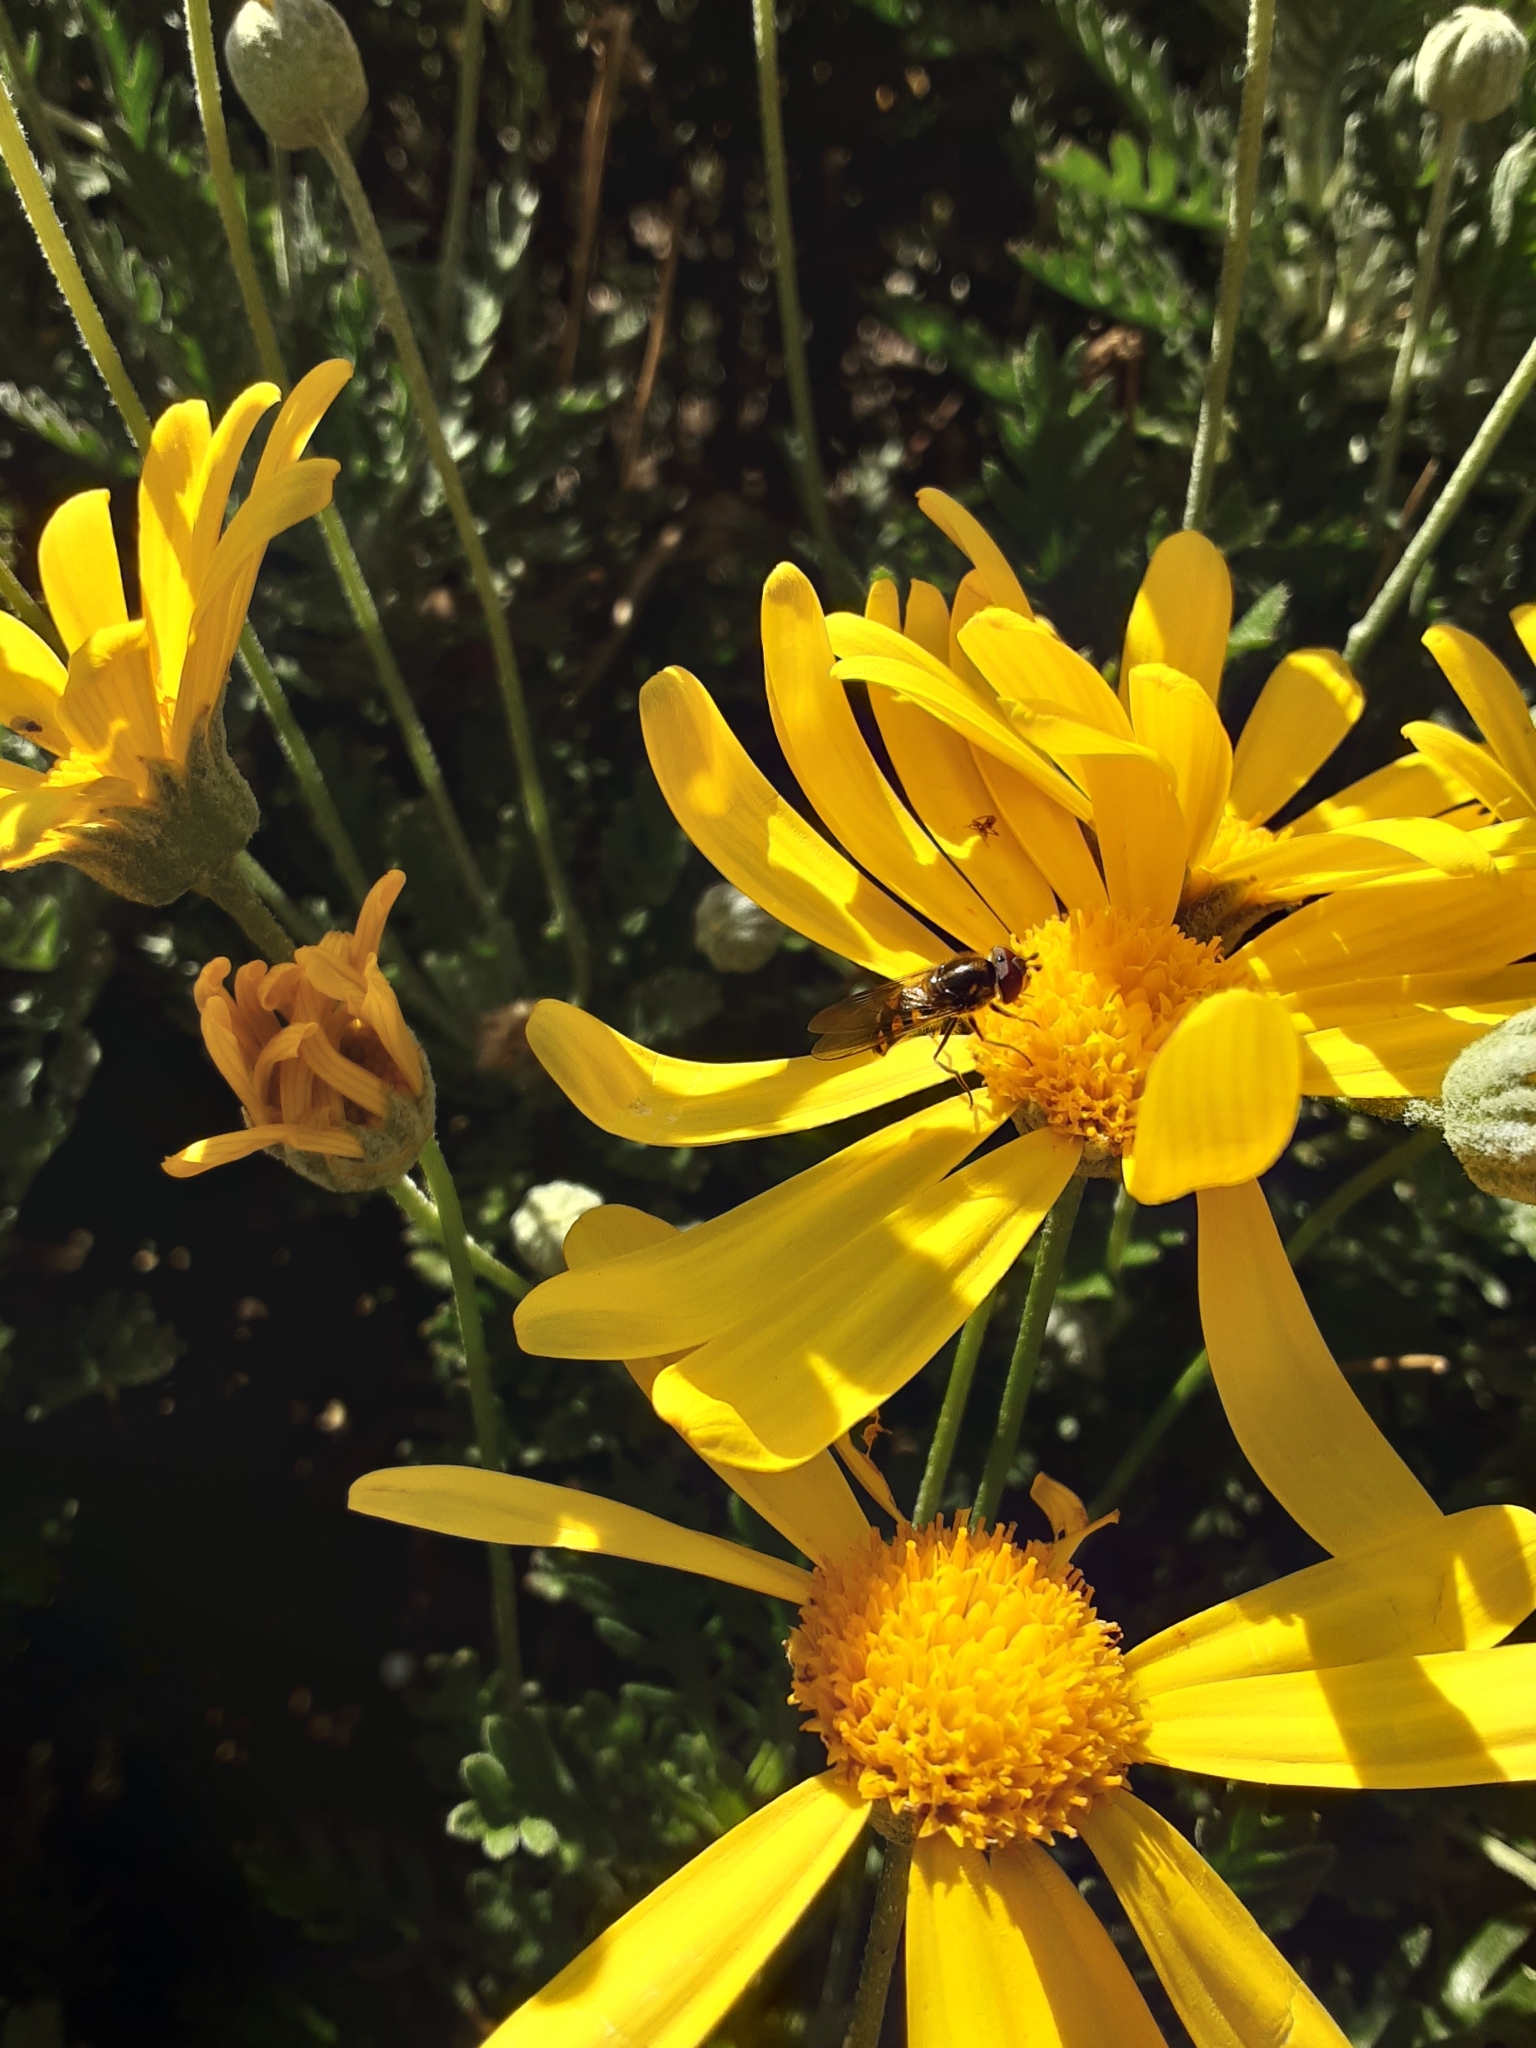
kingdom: Animalia
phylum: Arthropoda
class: Insecta
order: Diptera
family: Syrphidae
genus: Melangyna
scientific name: Melangyna viridiceps
